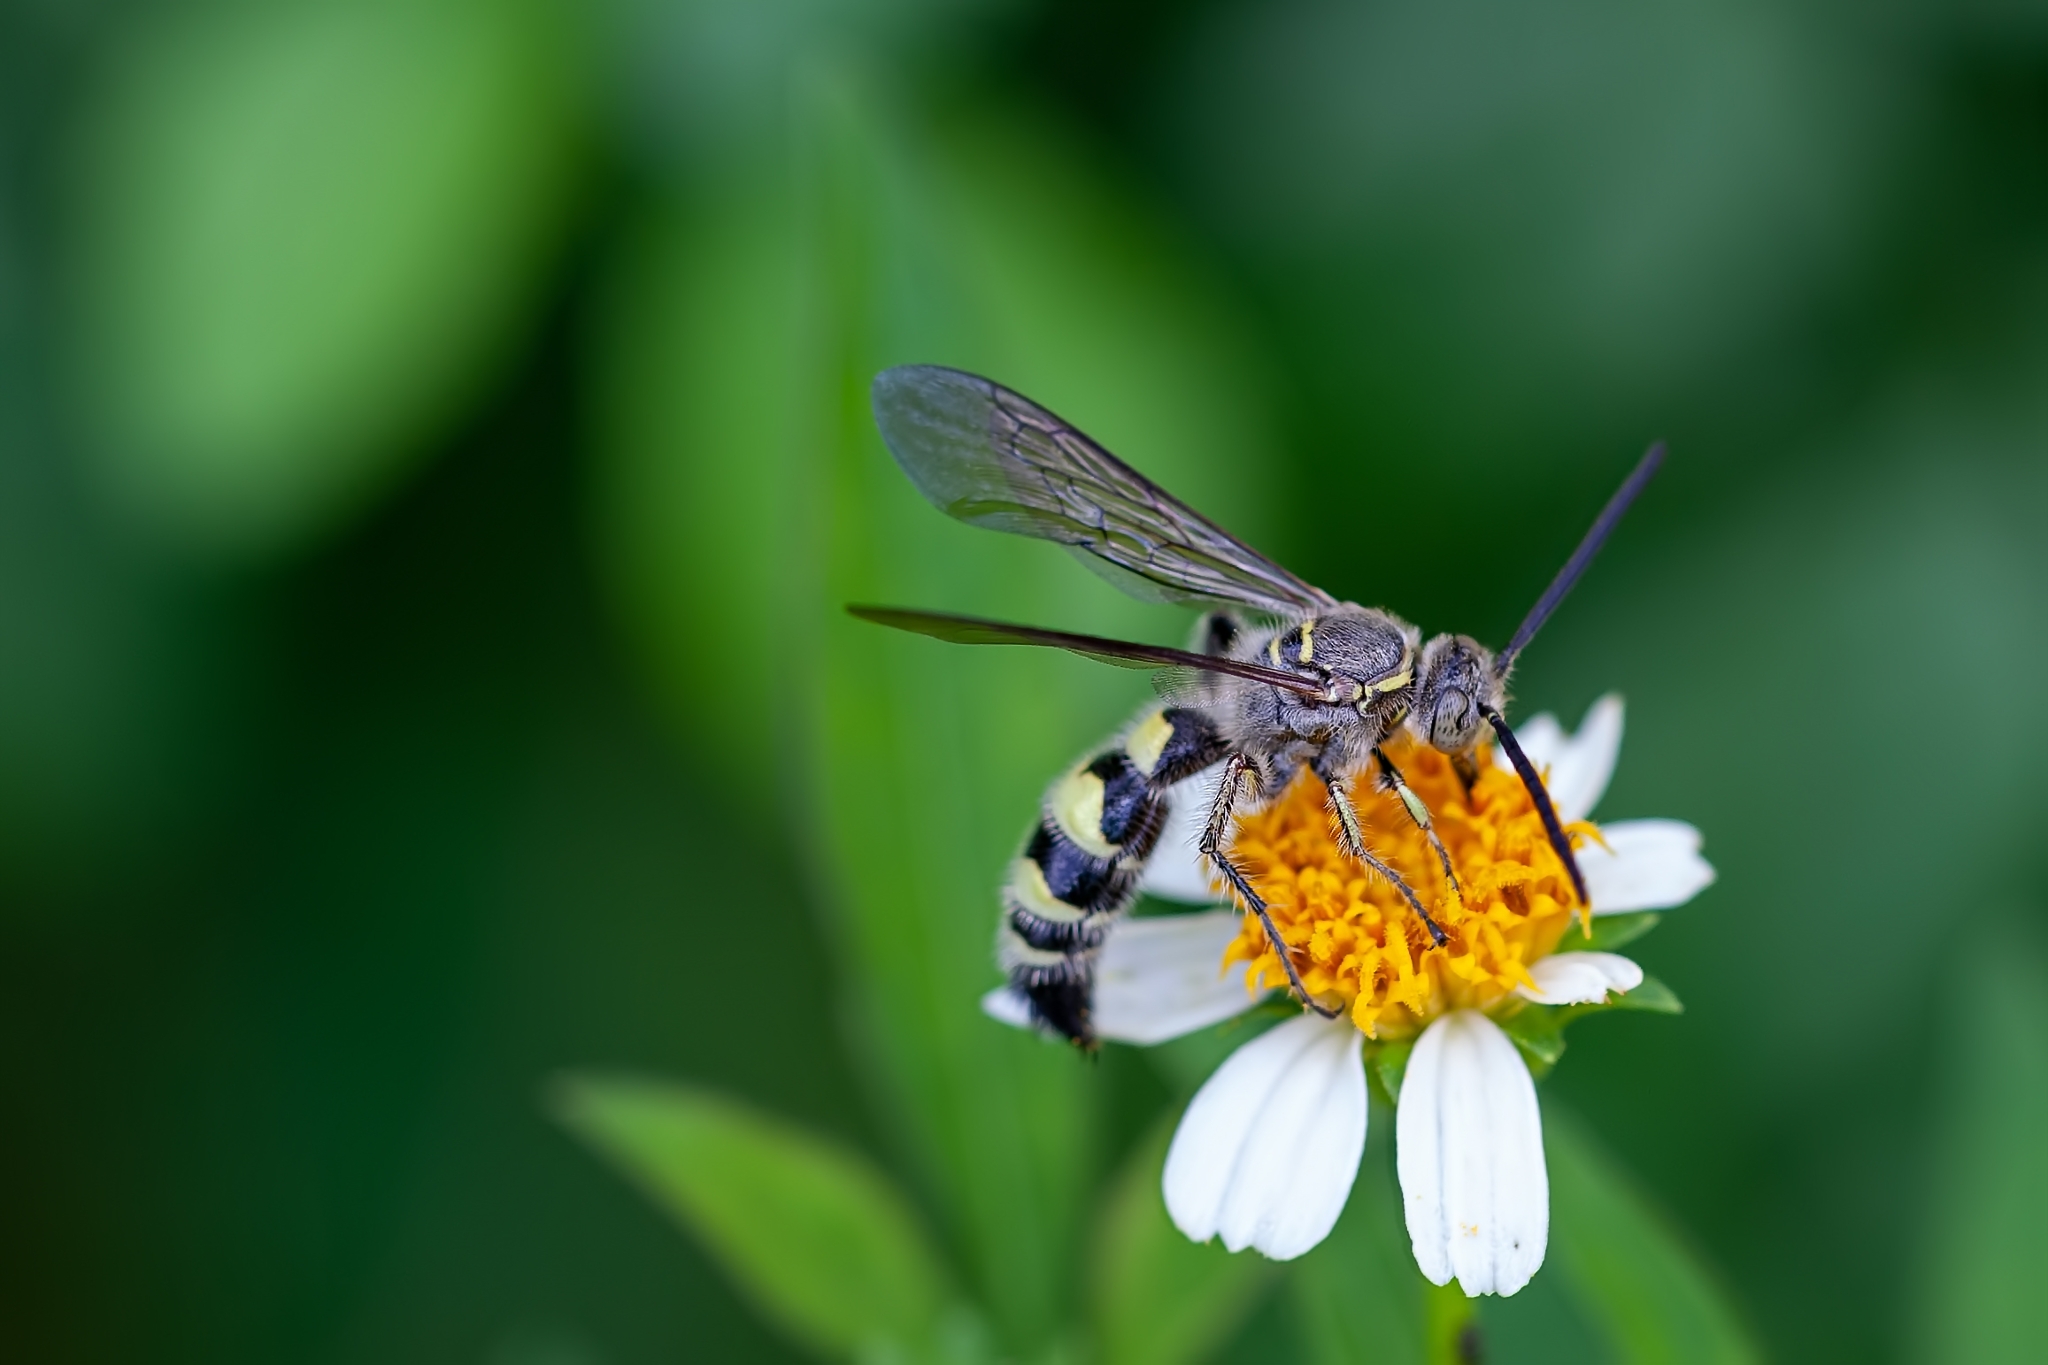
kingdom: Animalia
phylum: Arthropoda
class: Insecta
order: Hymenoptera
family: Scoliidae
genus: Dielis
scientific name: Dielis
